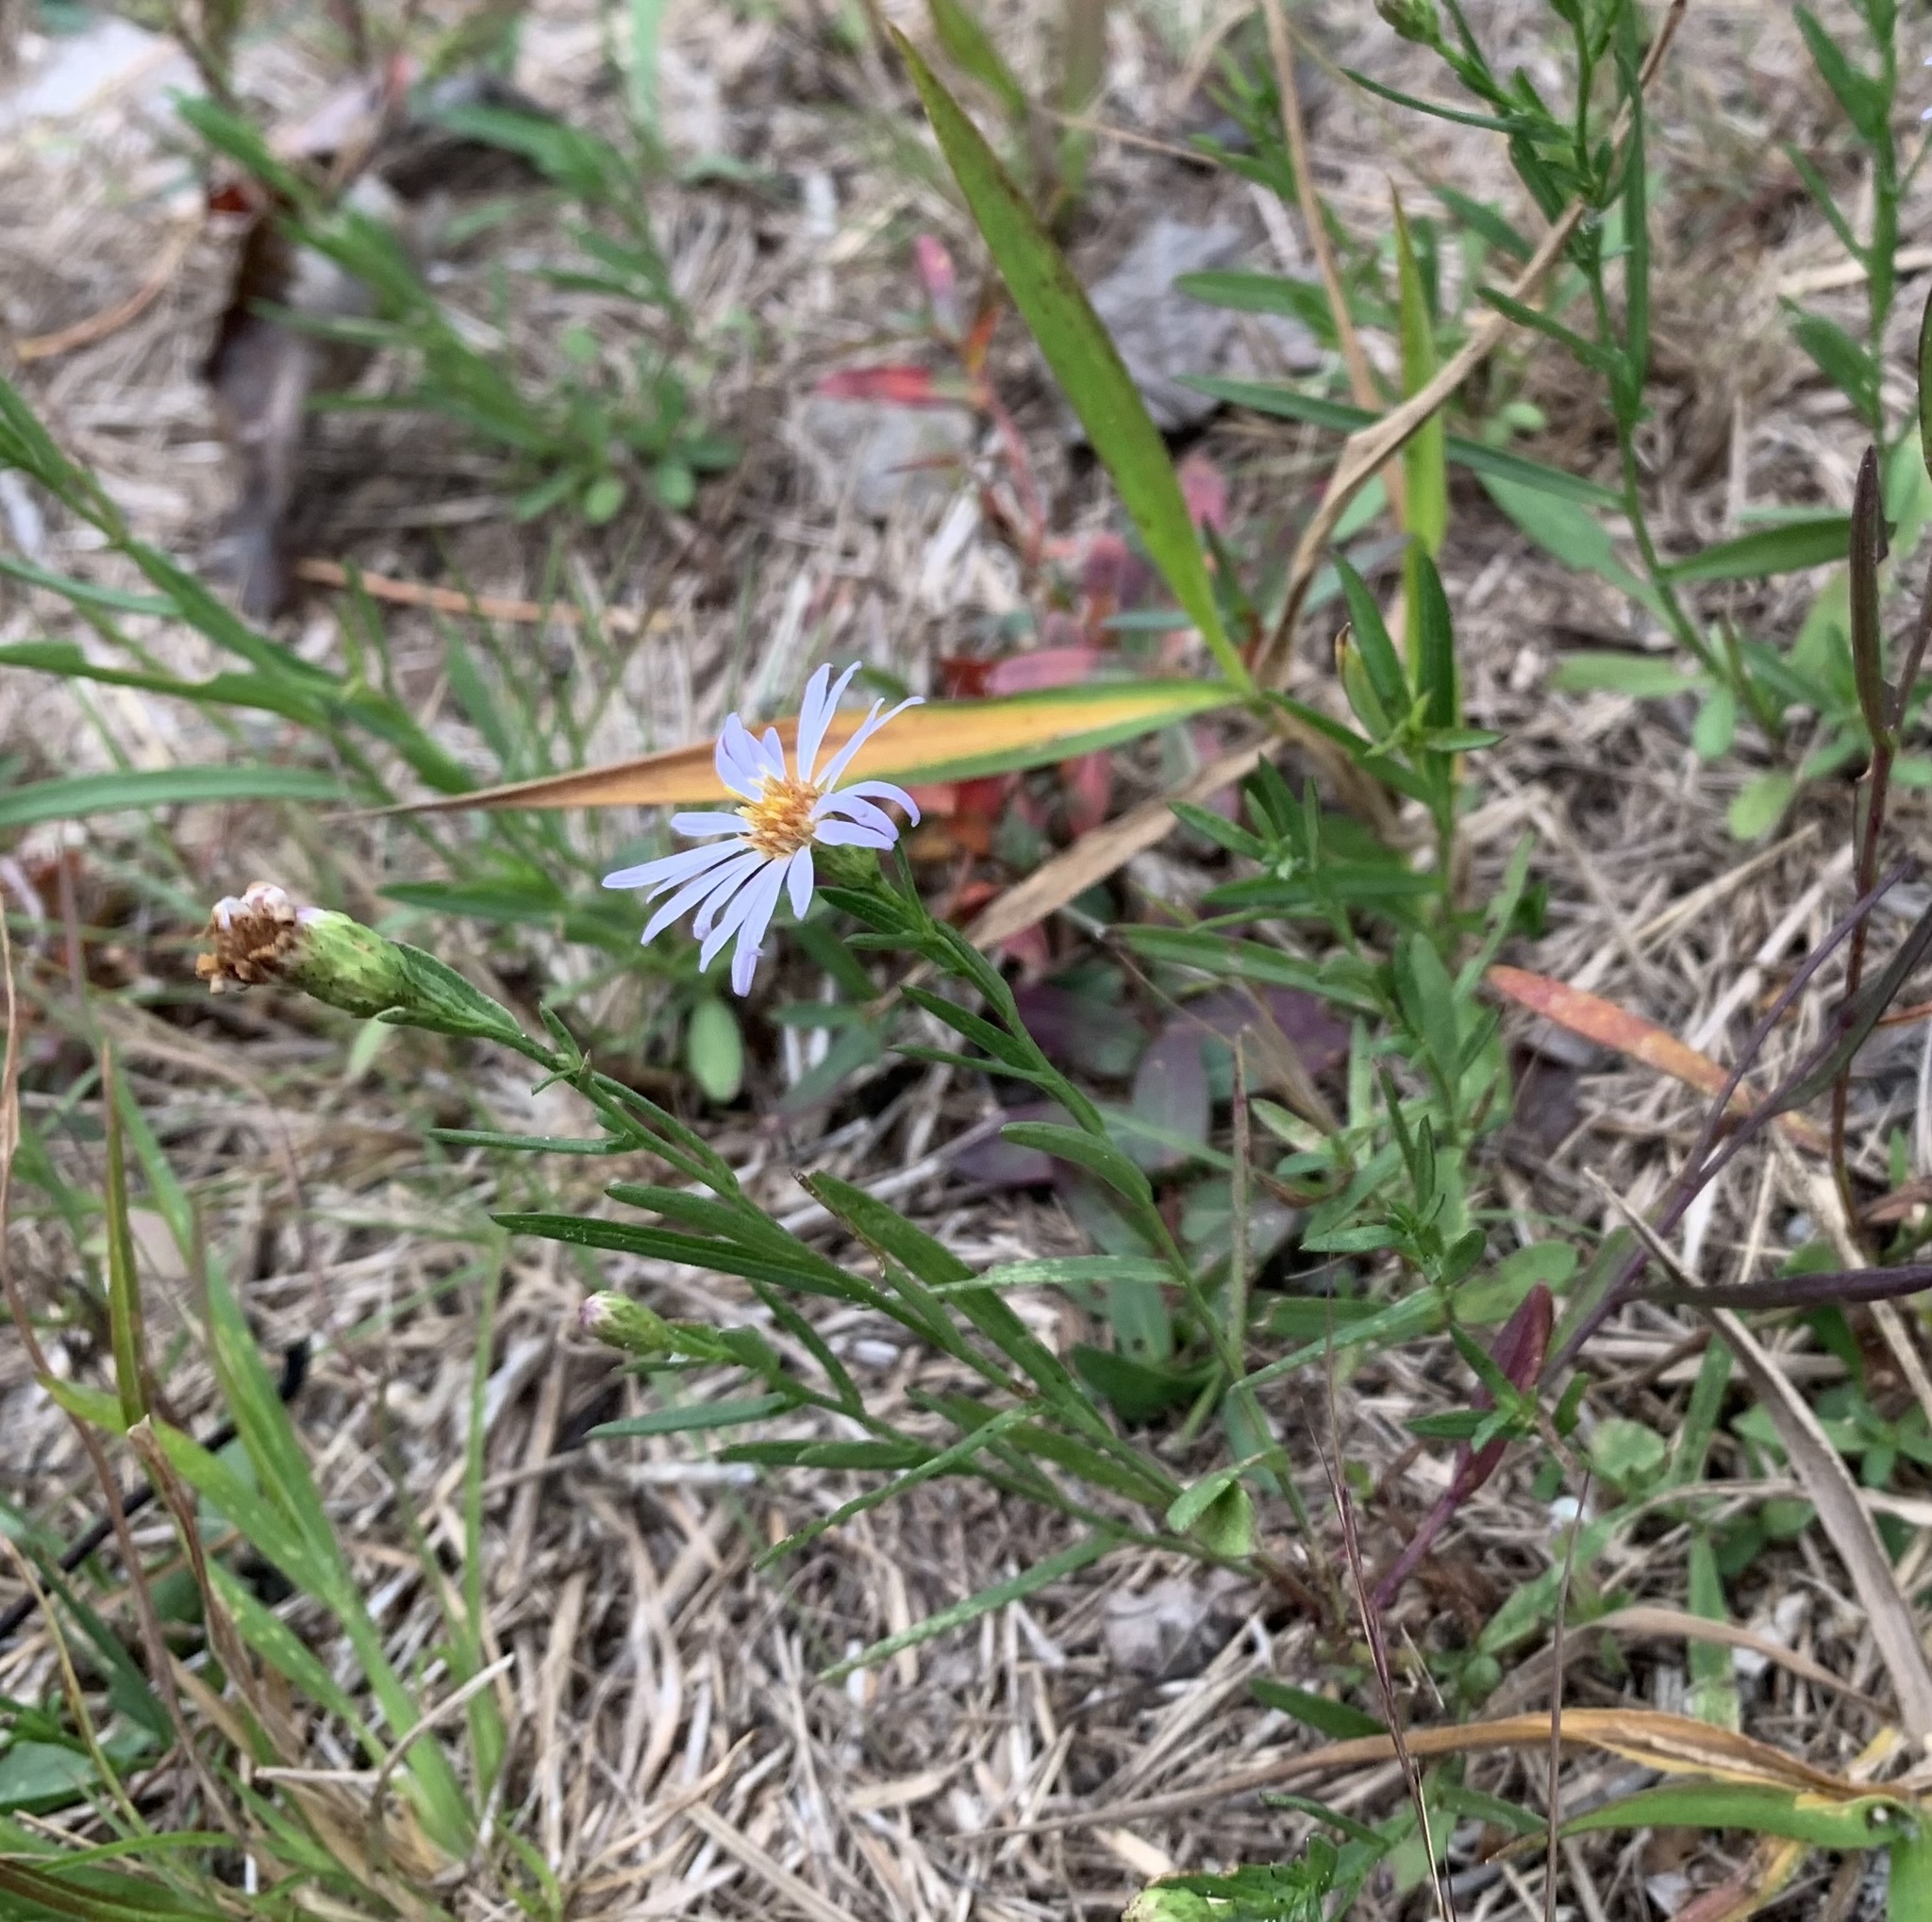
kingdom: Plantae
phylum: Tracheophyta
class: Magnoliopsida
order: Asterales
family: Asteraceae
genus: Symphyotrichum
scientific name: Symphyotrichum dumosum
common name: Bushy aster
